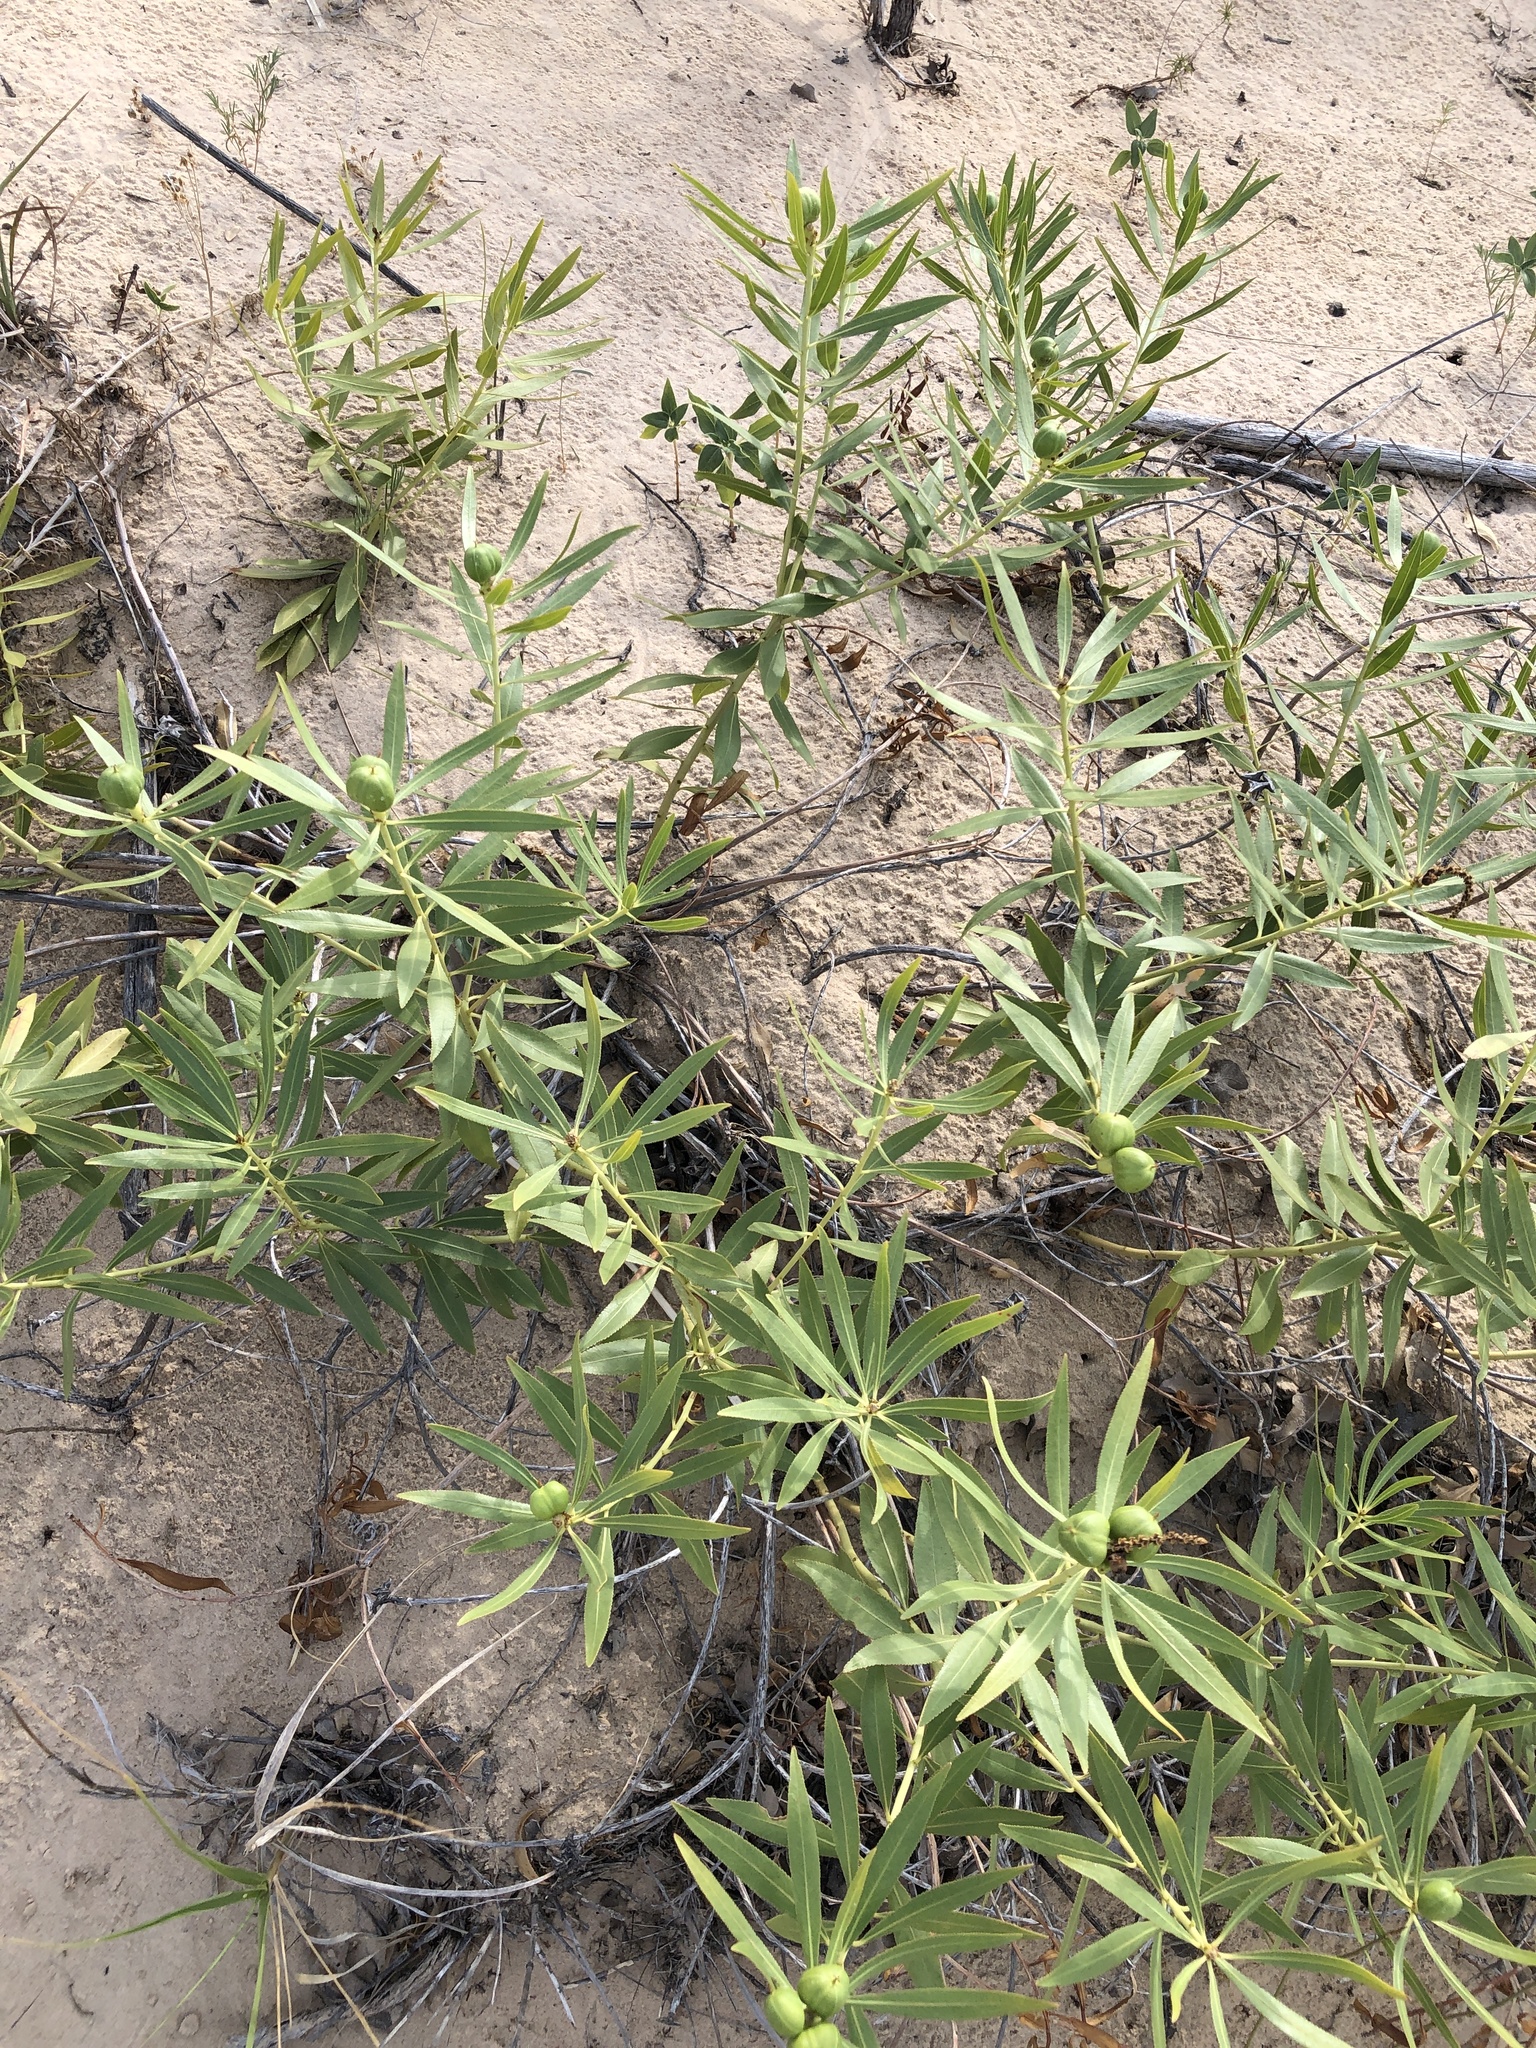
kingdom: Plantae
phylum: Tracheophyta
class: Magnoliopsida
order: Malpighiales
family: Euphorbiaceae
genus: Stillingia
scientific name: Stillingia sylvatica
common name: Queen's-delight
